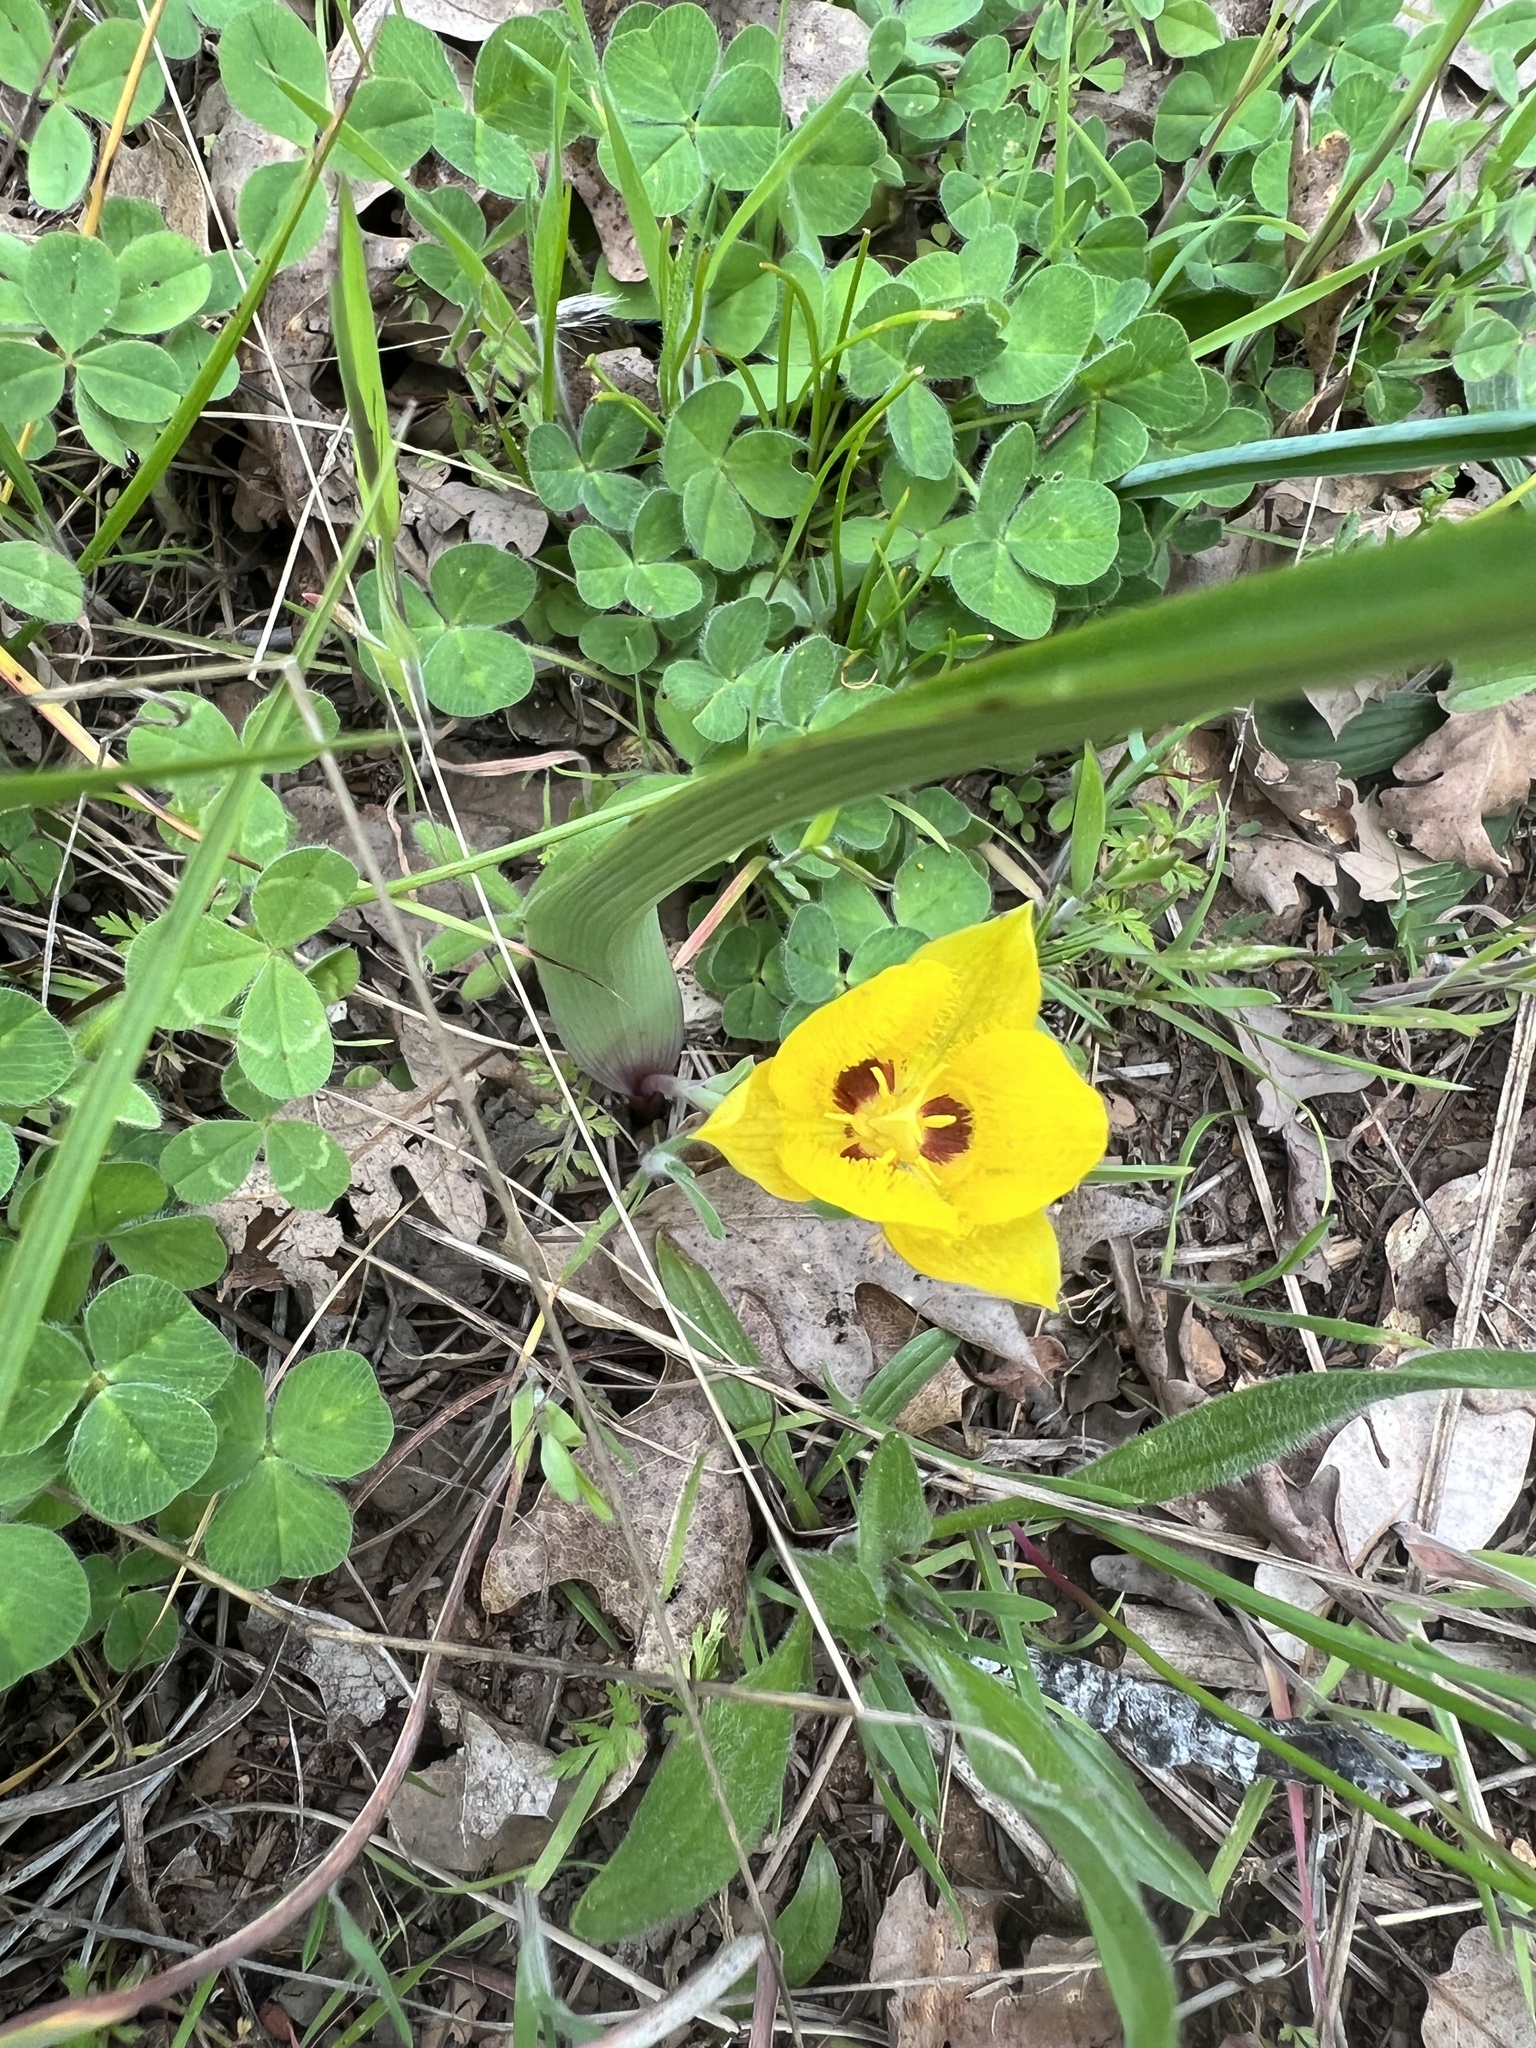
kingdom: Plantae
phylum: Tracheophyta
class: Liliopsida
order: Liliales
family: Liliaceae
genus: Calochortus
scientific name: Calochortus monophyllus
